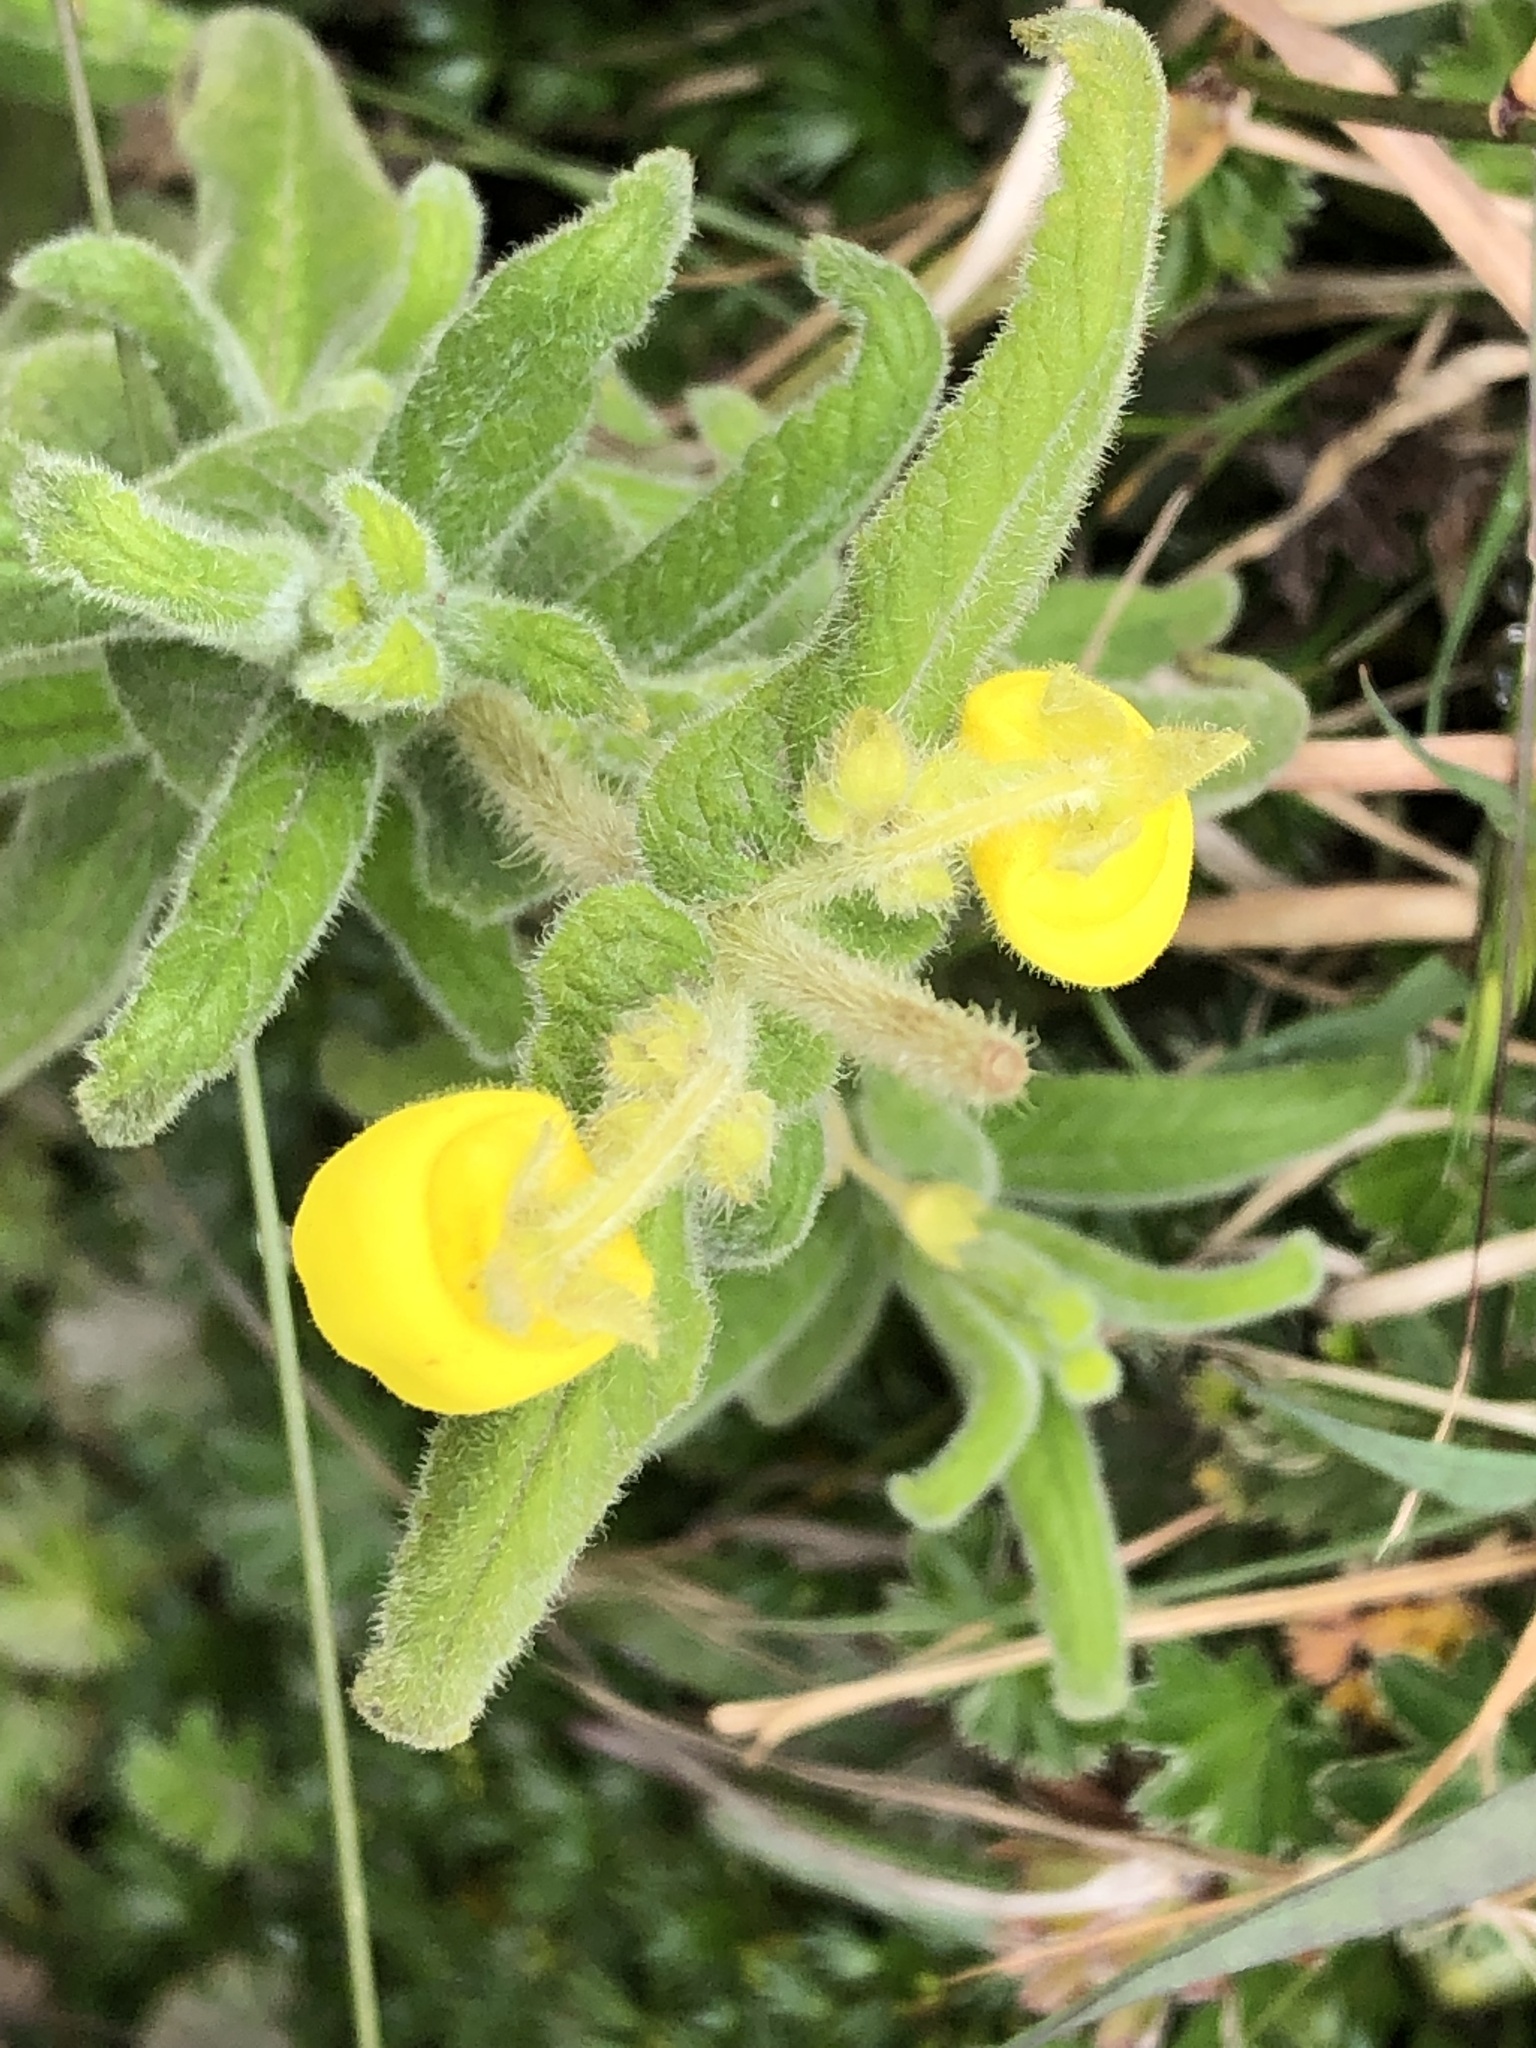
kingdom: Plantae
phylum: Tracheophyta
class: Magnoliopsida
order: Lamiales
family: Calceolariaceae
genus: Calceolaria
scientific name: Calceolaria crenata
